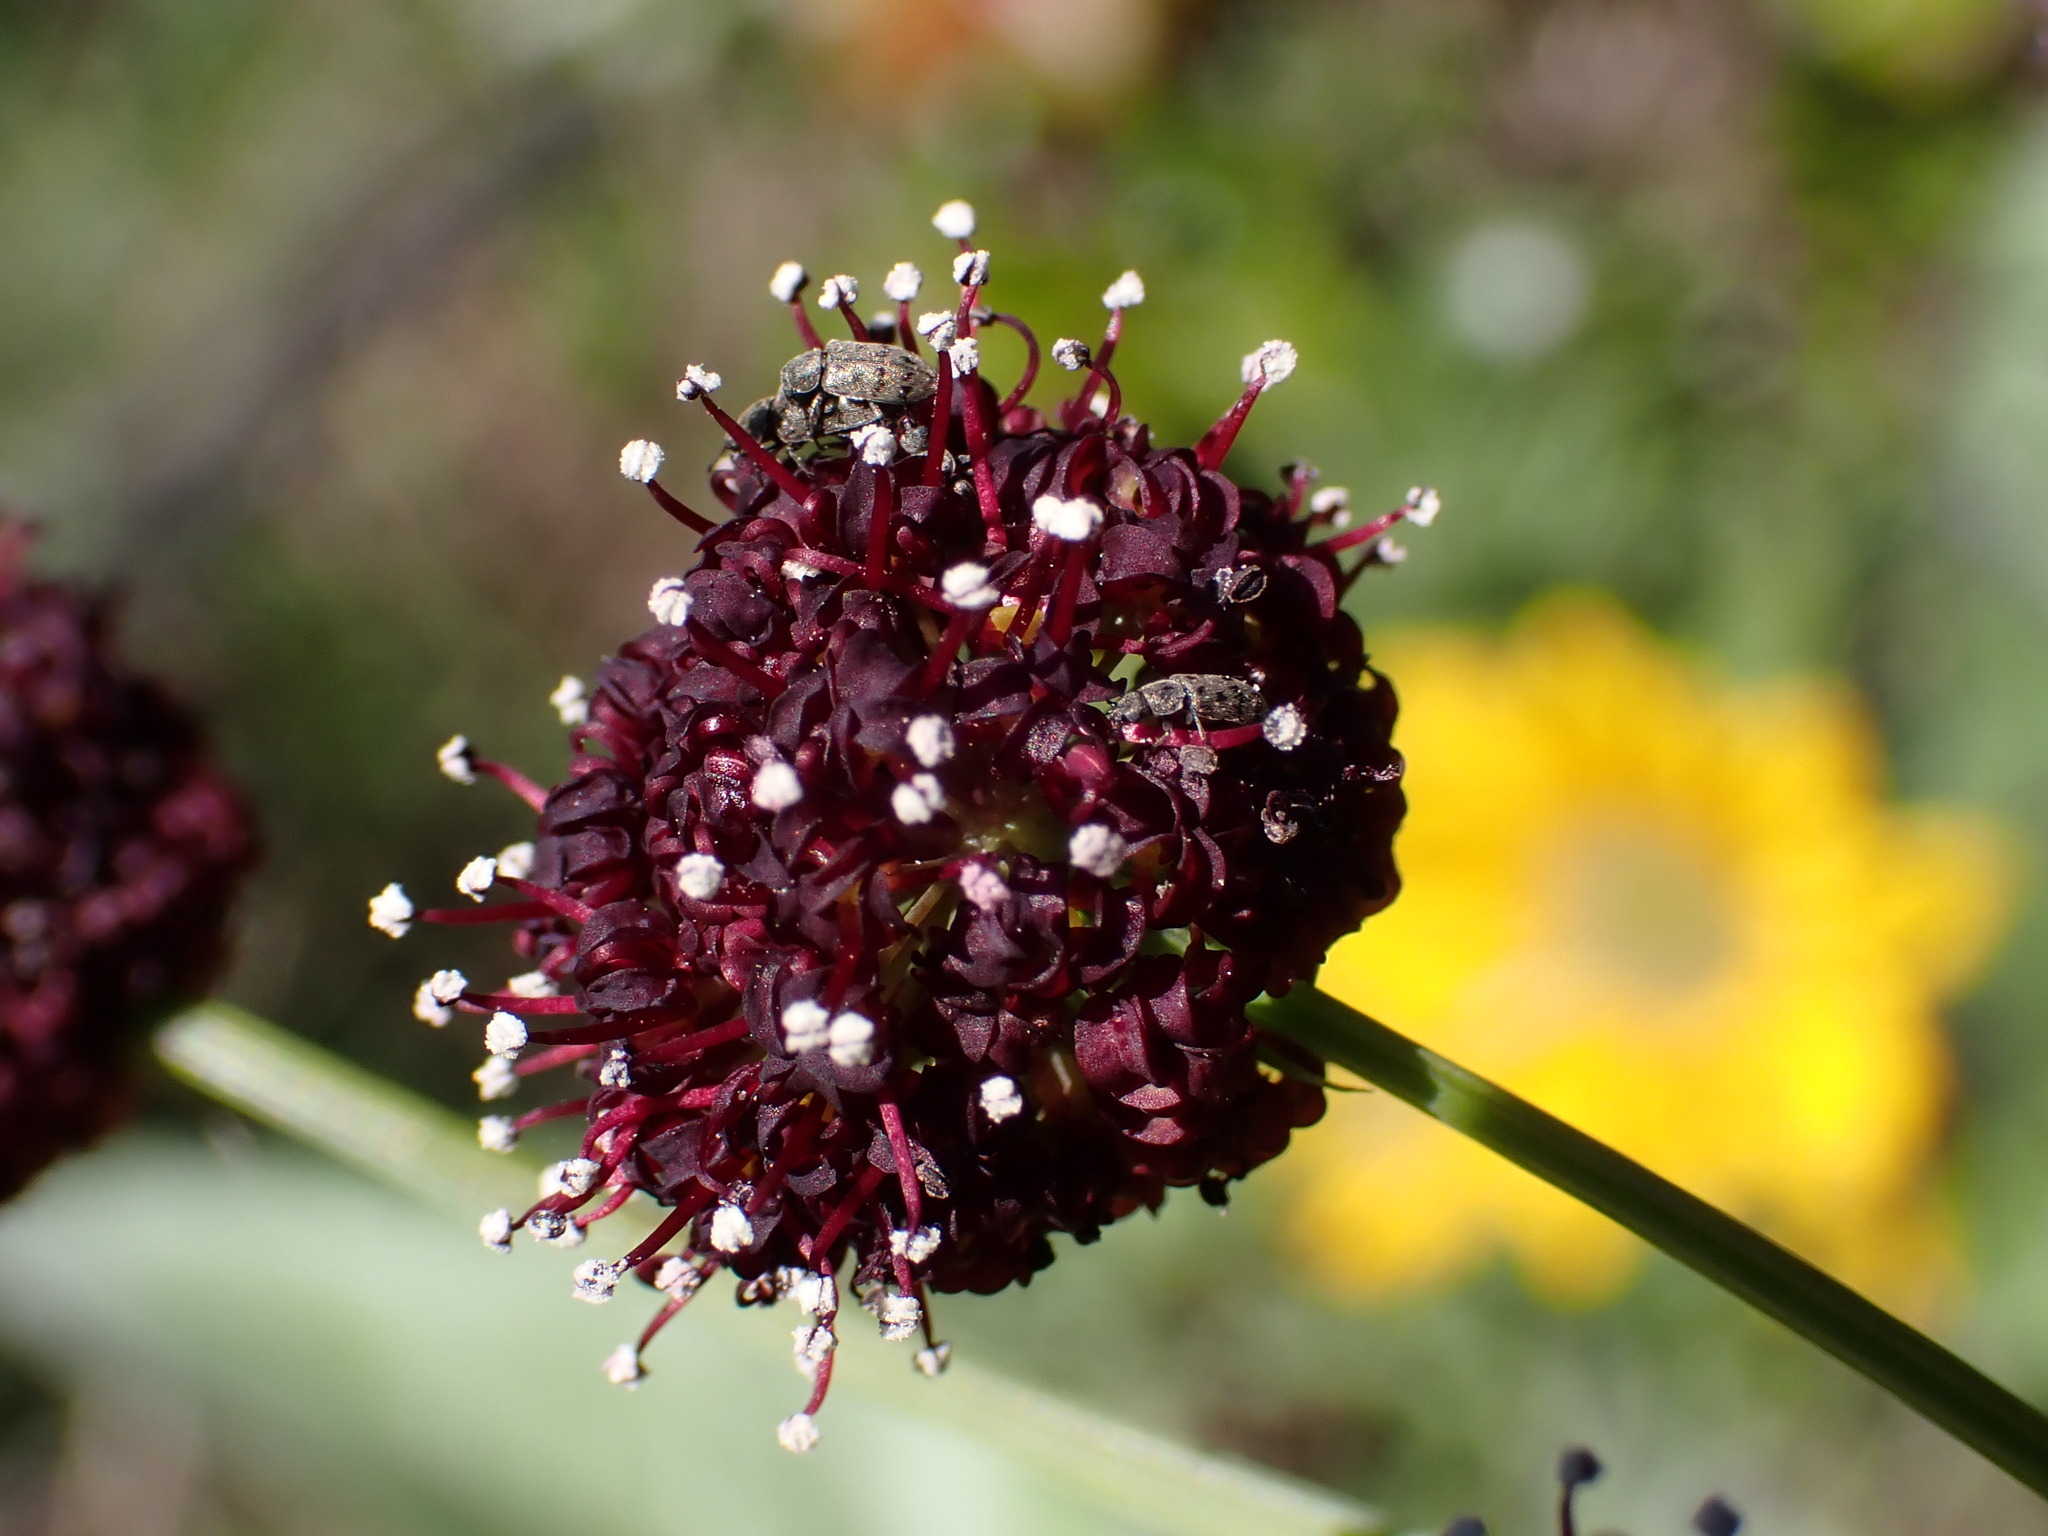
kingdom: Plantae
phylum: Tracheophyta
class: Magnoliopsida
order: Apiales
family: Apiaceae
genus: Lomatium
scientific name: Lomatium dissectum
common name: Lomatium
